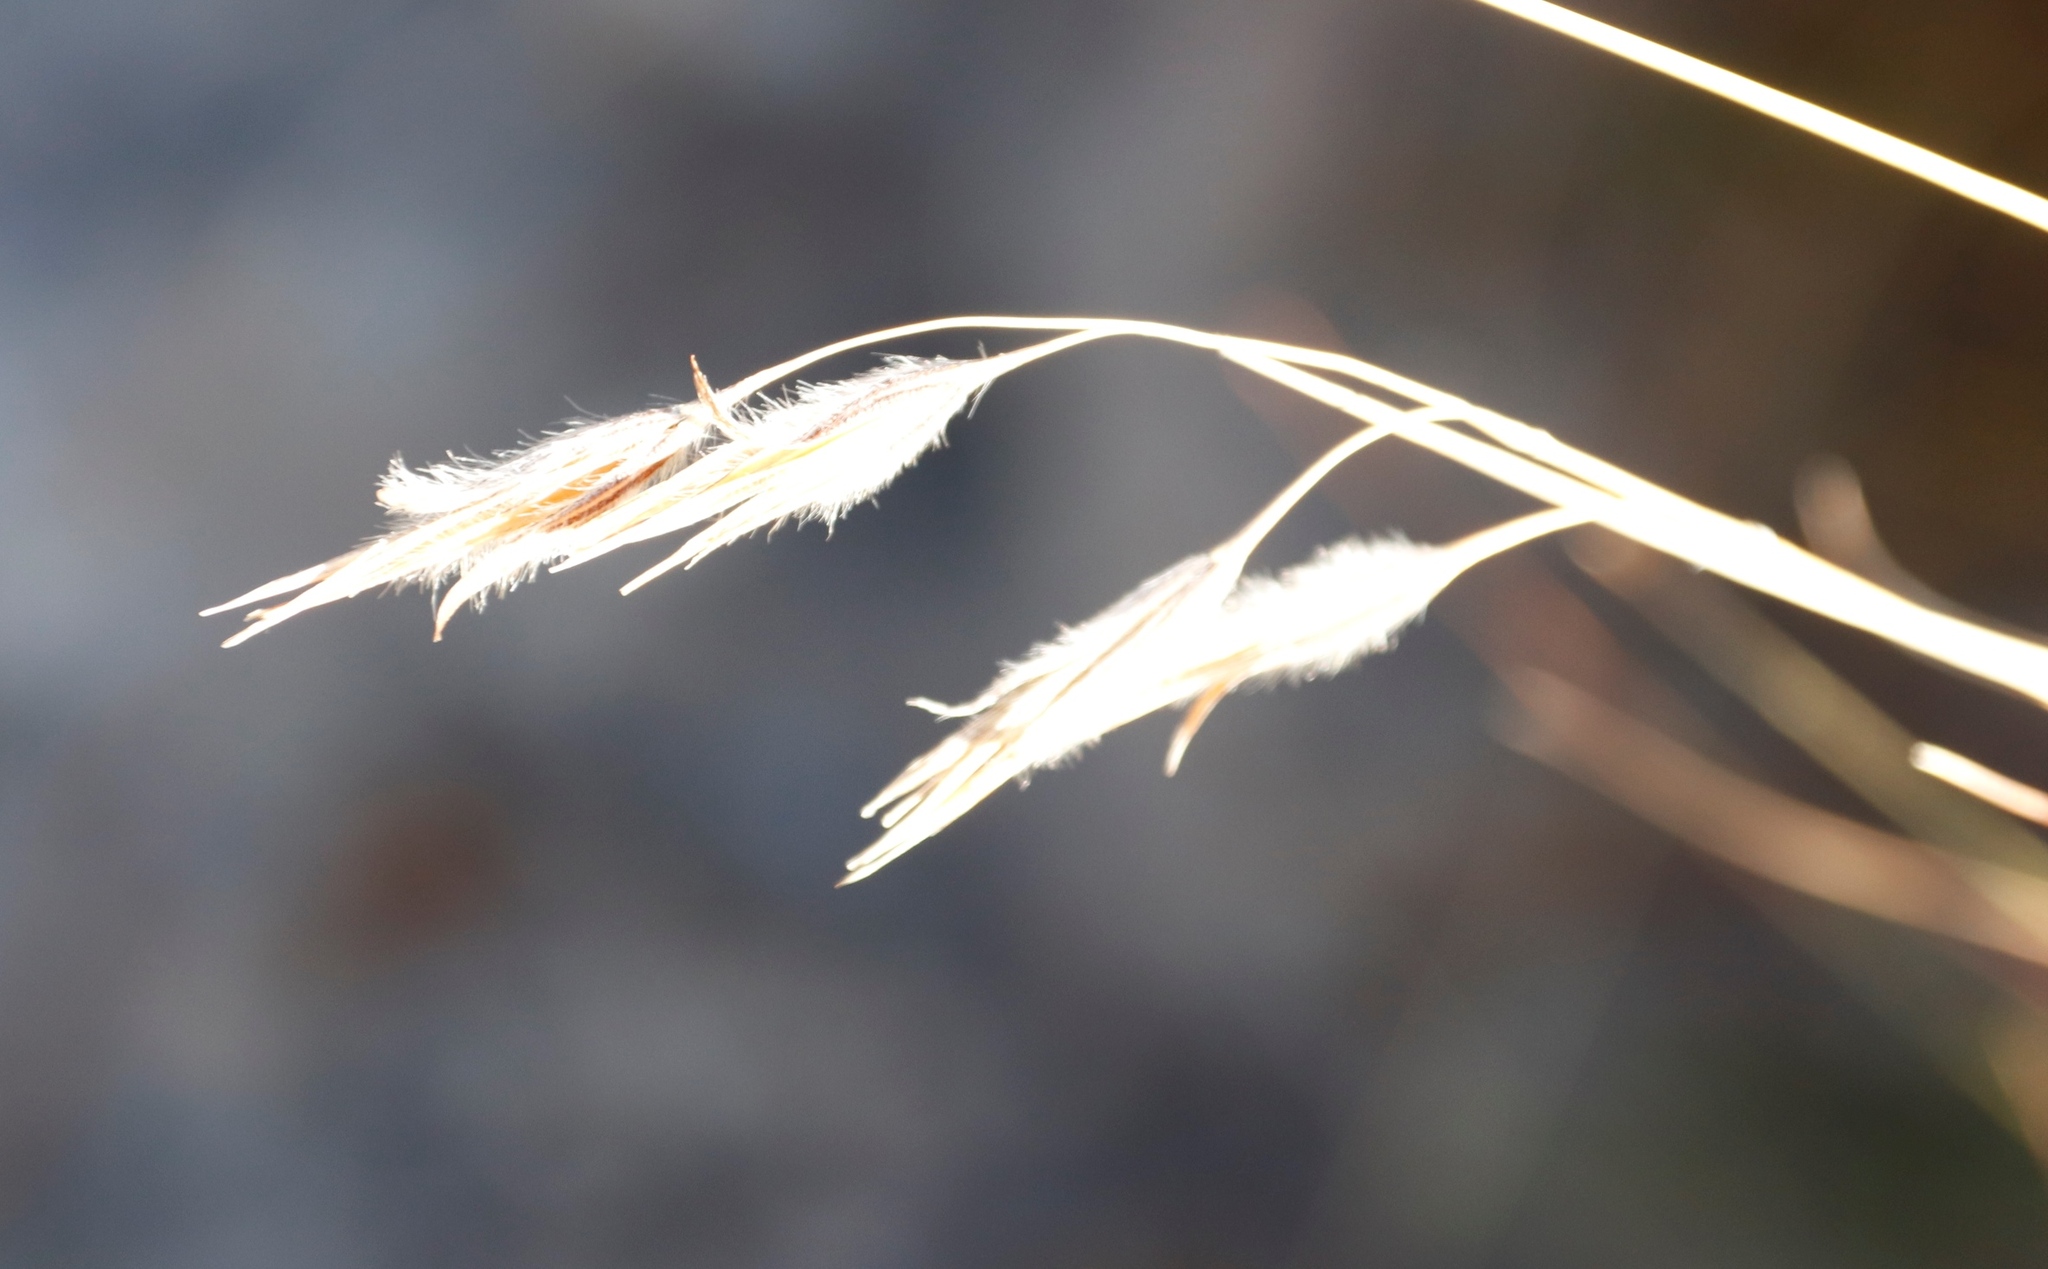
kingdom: Plantae
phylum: Tracheophyta
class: Liliopsida
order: Poales
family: Poaceae
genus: Tristachya
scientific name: Tristachya leucothrix
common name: Trident grass
